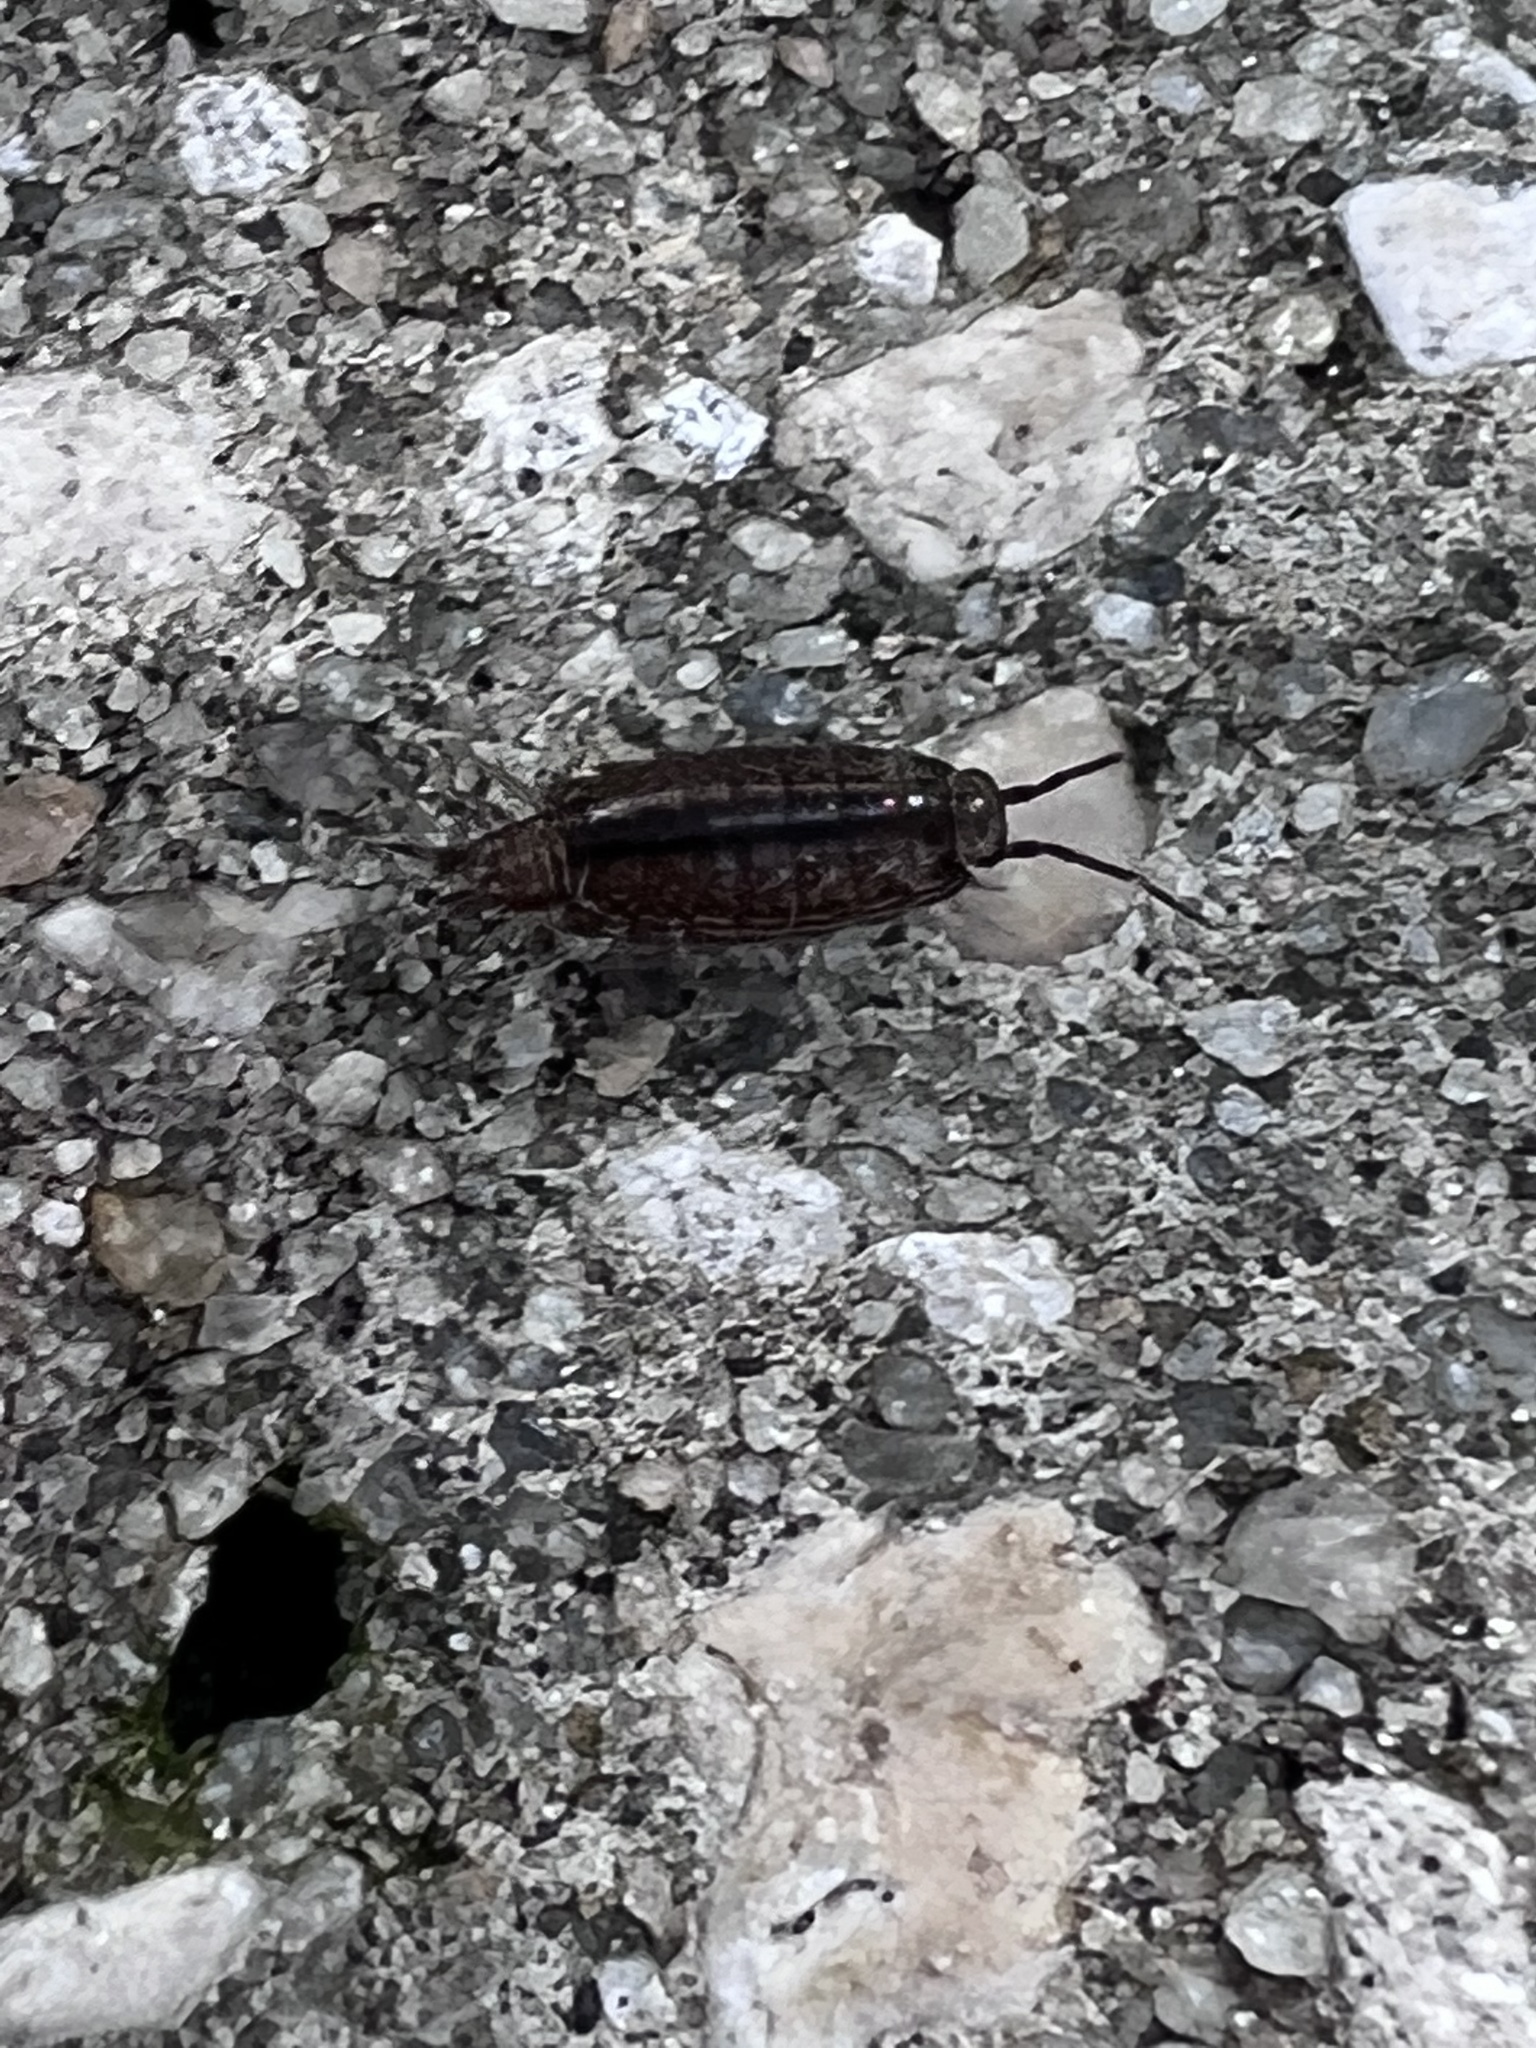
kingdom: Animalia
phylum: Arthropoda
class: Malacostraca
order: Isopoda
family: Philosciidae
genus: Atlantoscia
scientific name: Atlantoscia floridana
